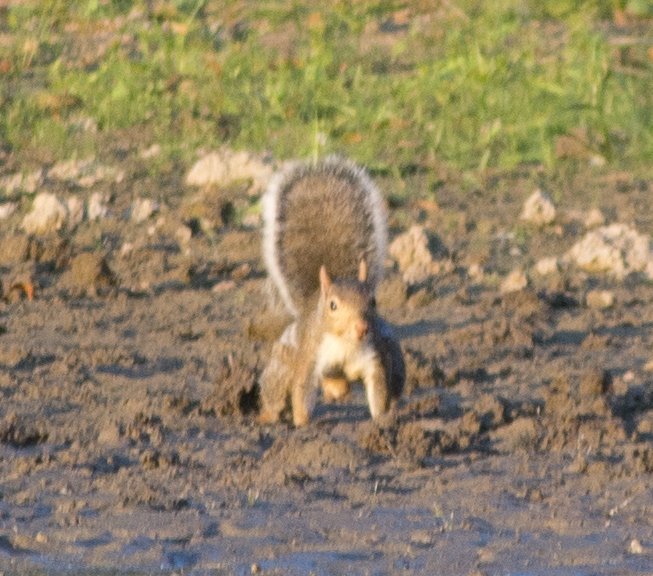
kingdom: Animalia
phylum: Chordata
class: Mammalia
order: Rodentia
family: Sciuridae
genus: Sciurus
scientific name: Sciurus carolinensis
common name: Eastern gray squirrel
